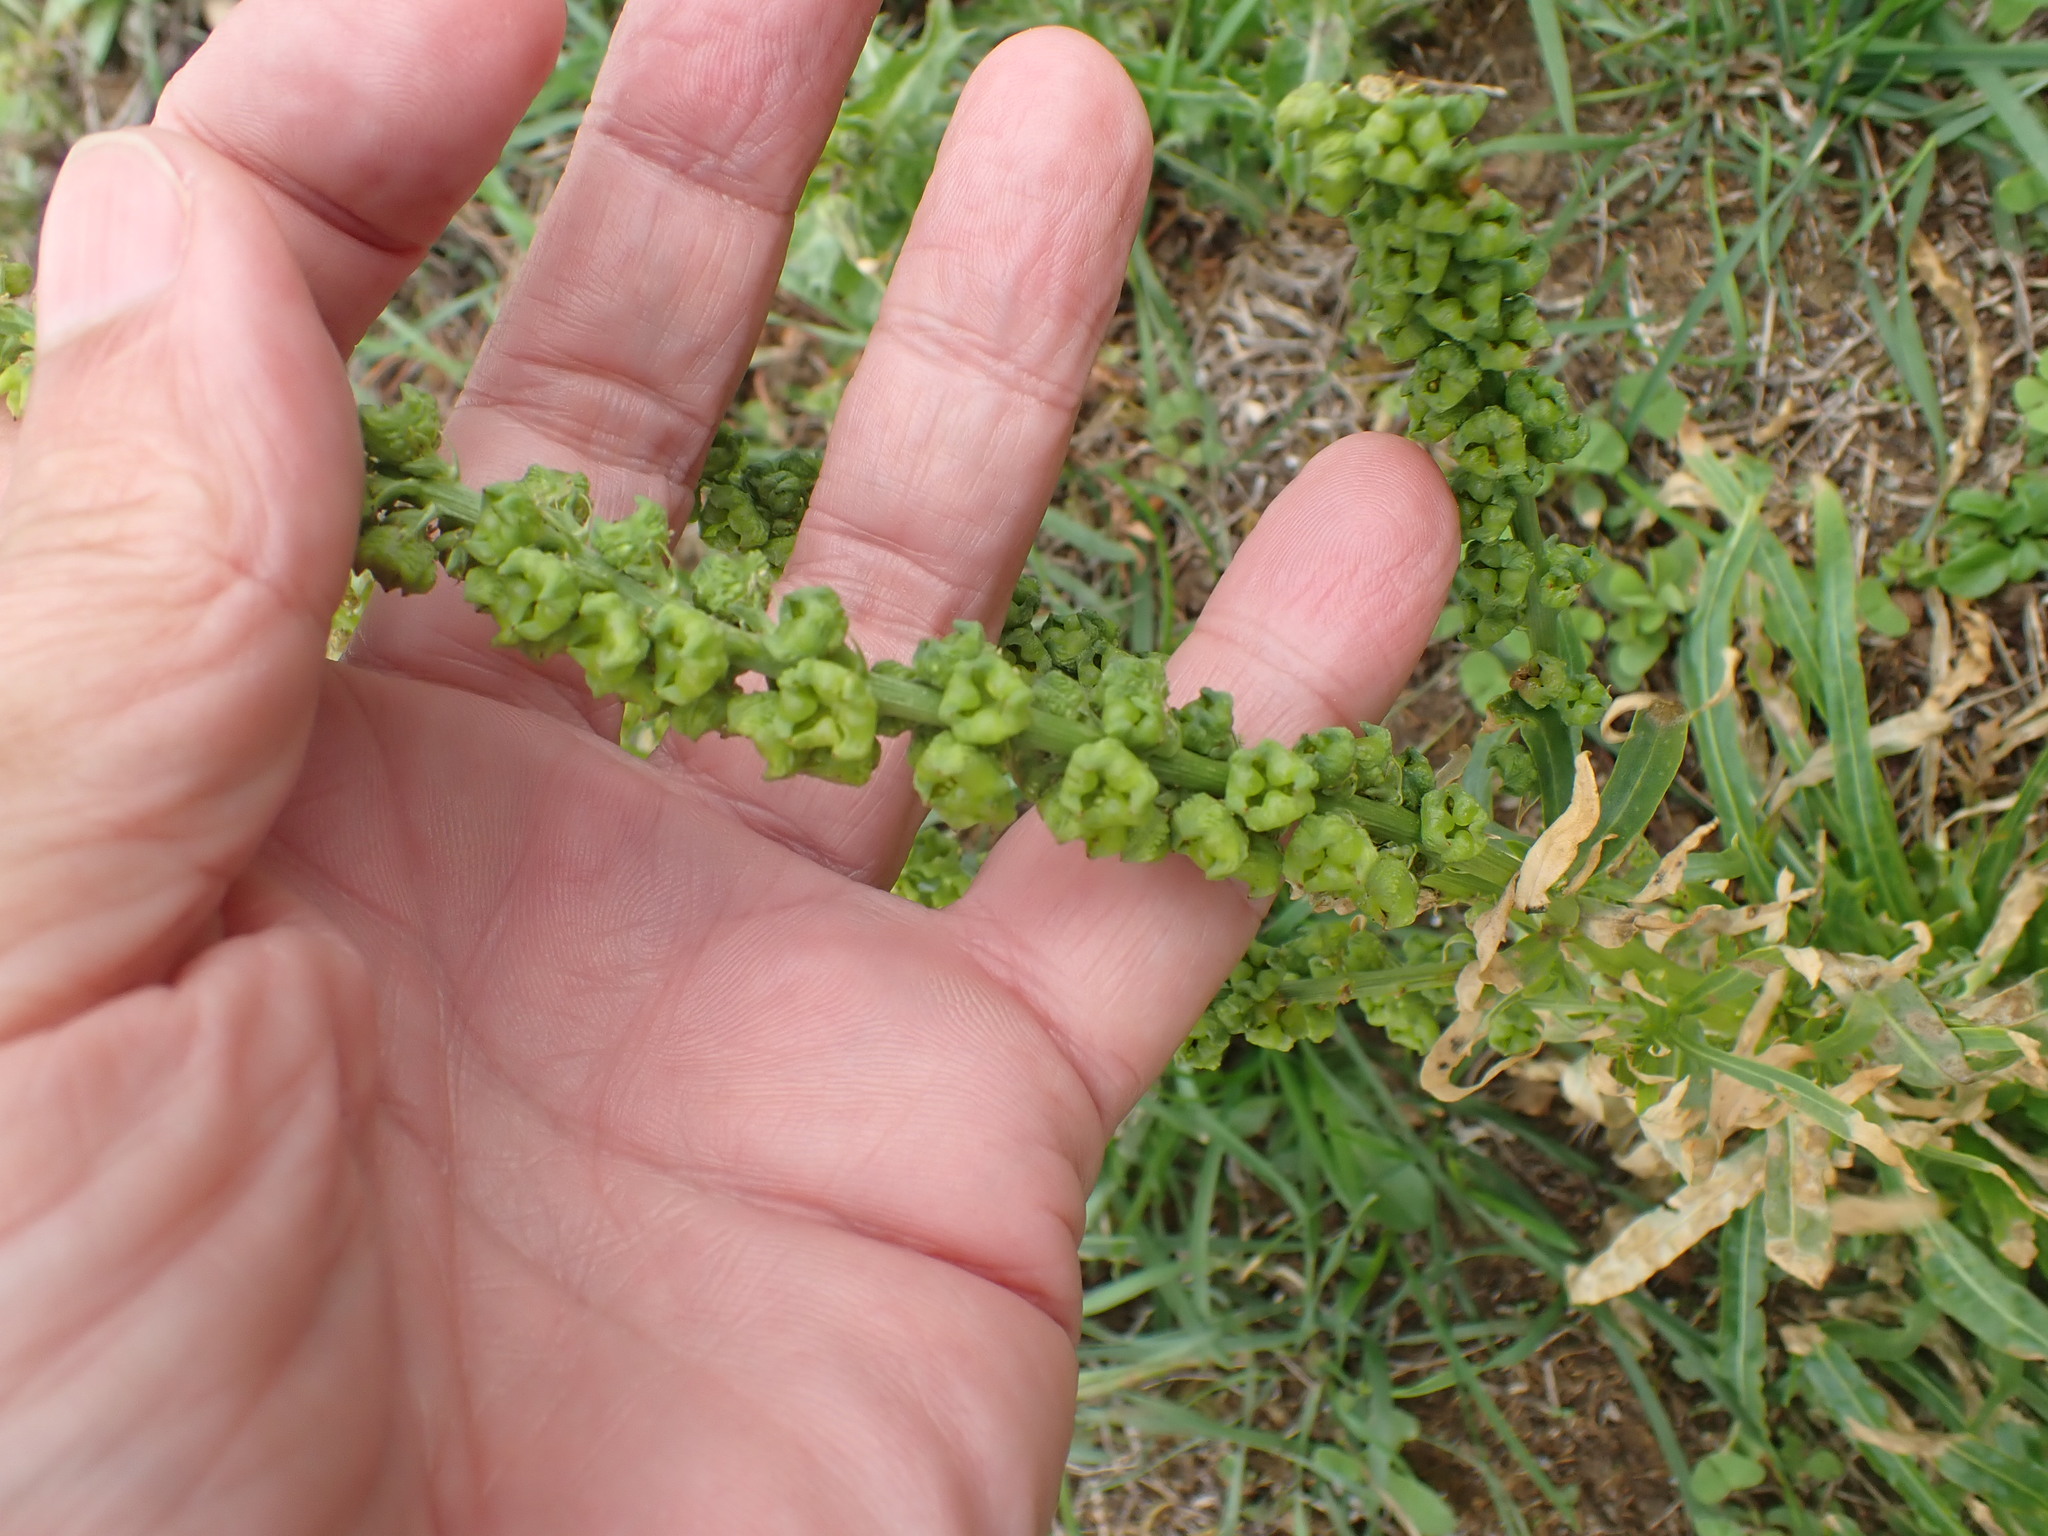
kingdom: Plantae
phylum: Tracheophyta
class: Magnoliopsida
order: Brassicales
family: Resedaceae
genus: Reseda
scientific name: Reseda luteola
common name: Weld
